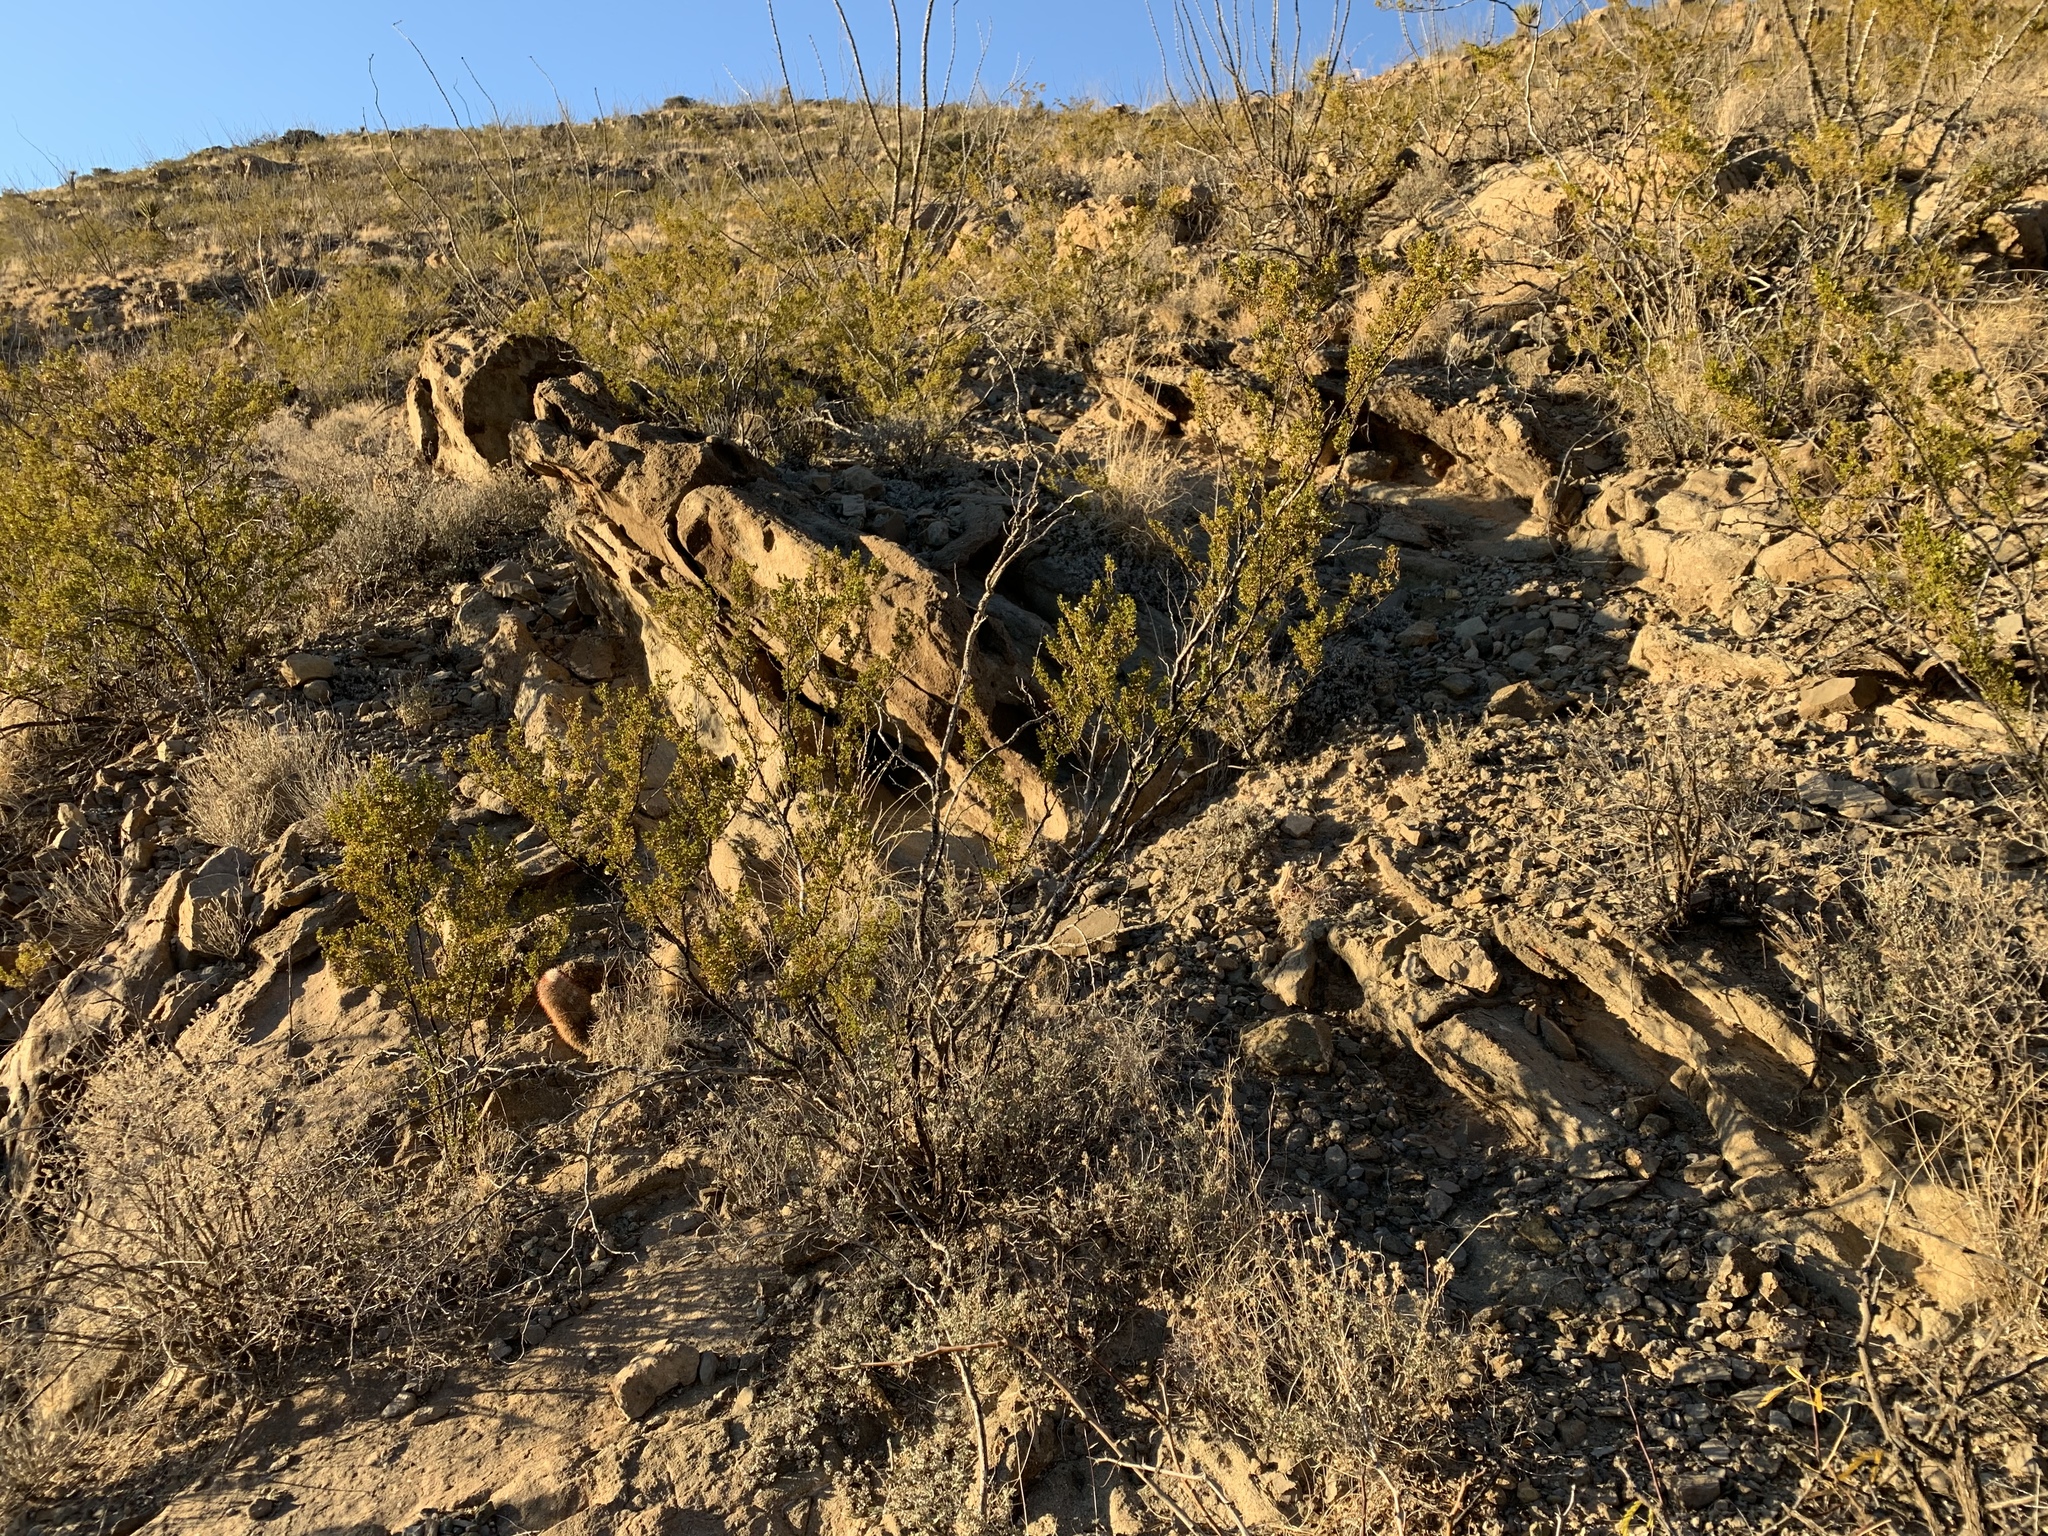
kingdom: Plantae
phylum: Tracheophyta
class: Magnoliopsida
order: Zygophyllales
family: Zygophyllaceae
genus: Larrea
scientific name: Larrea tridentata
